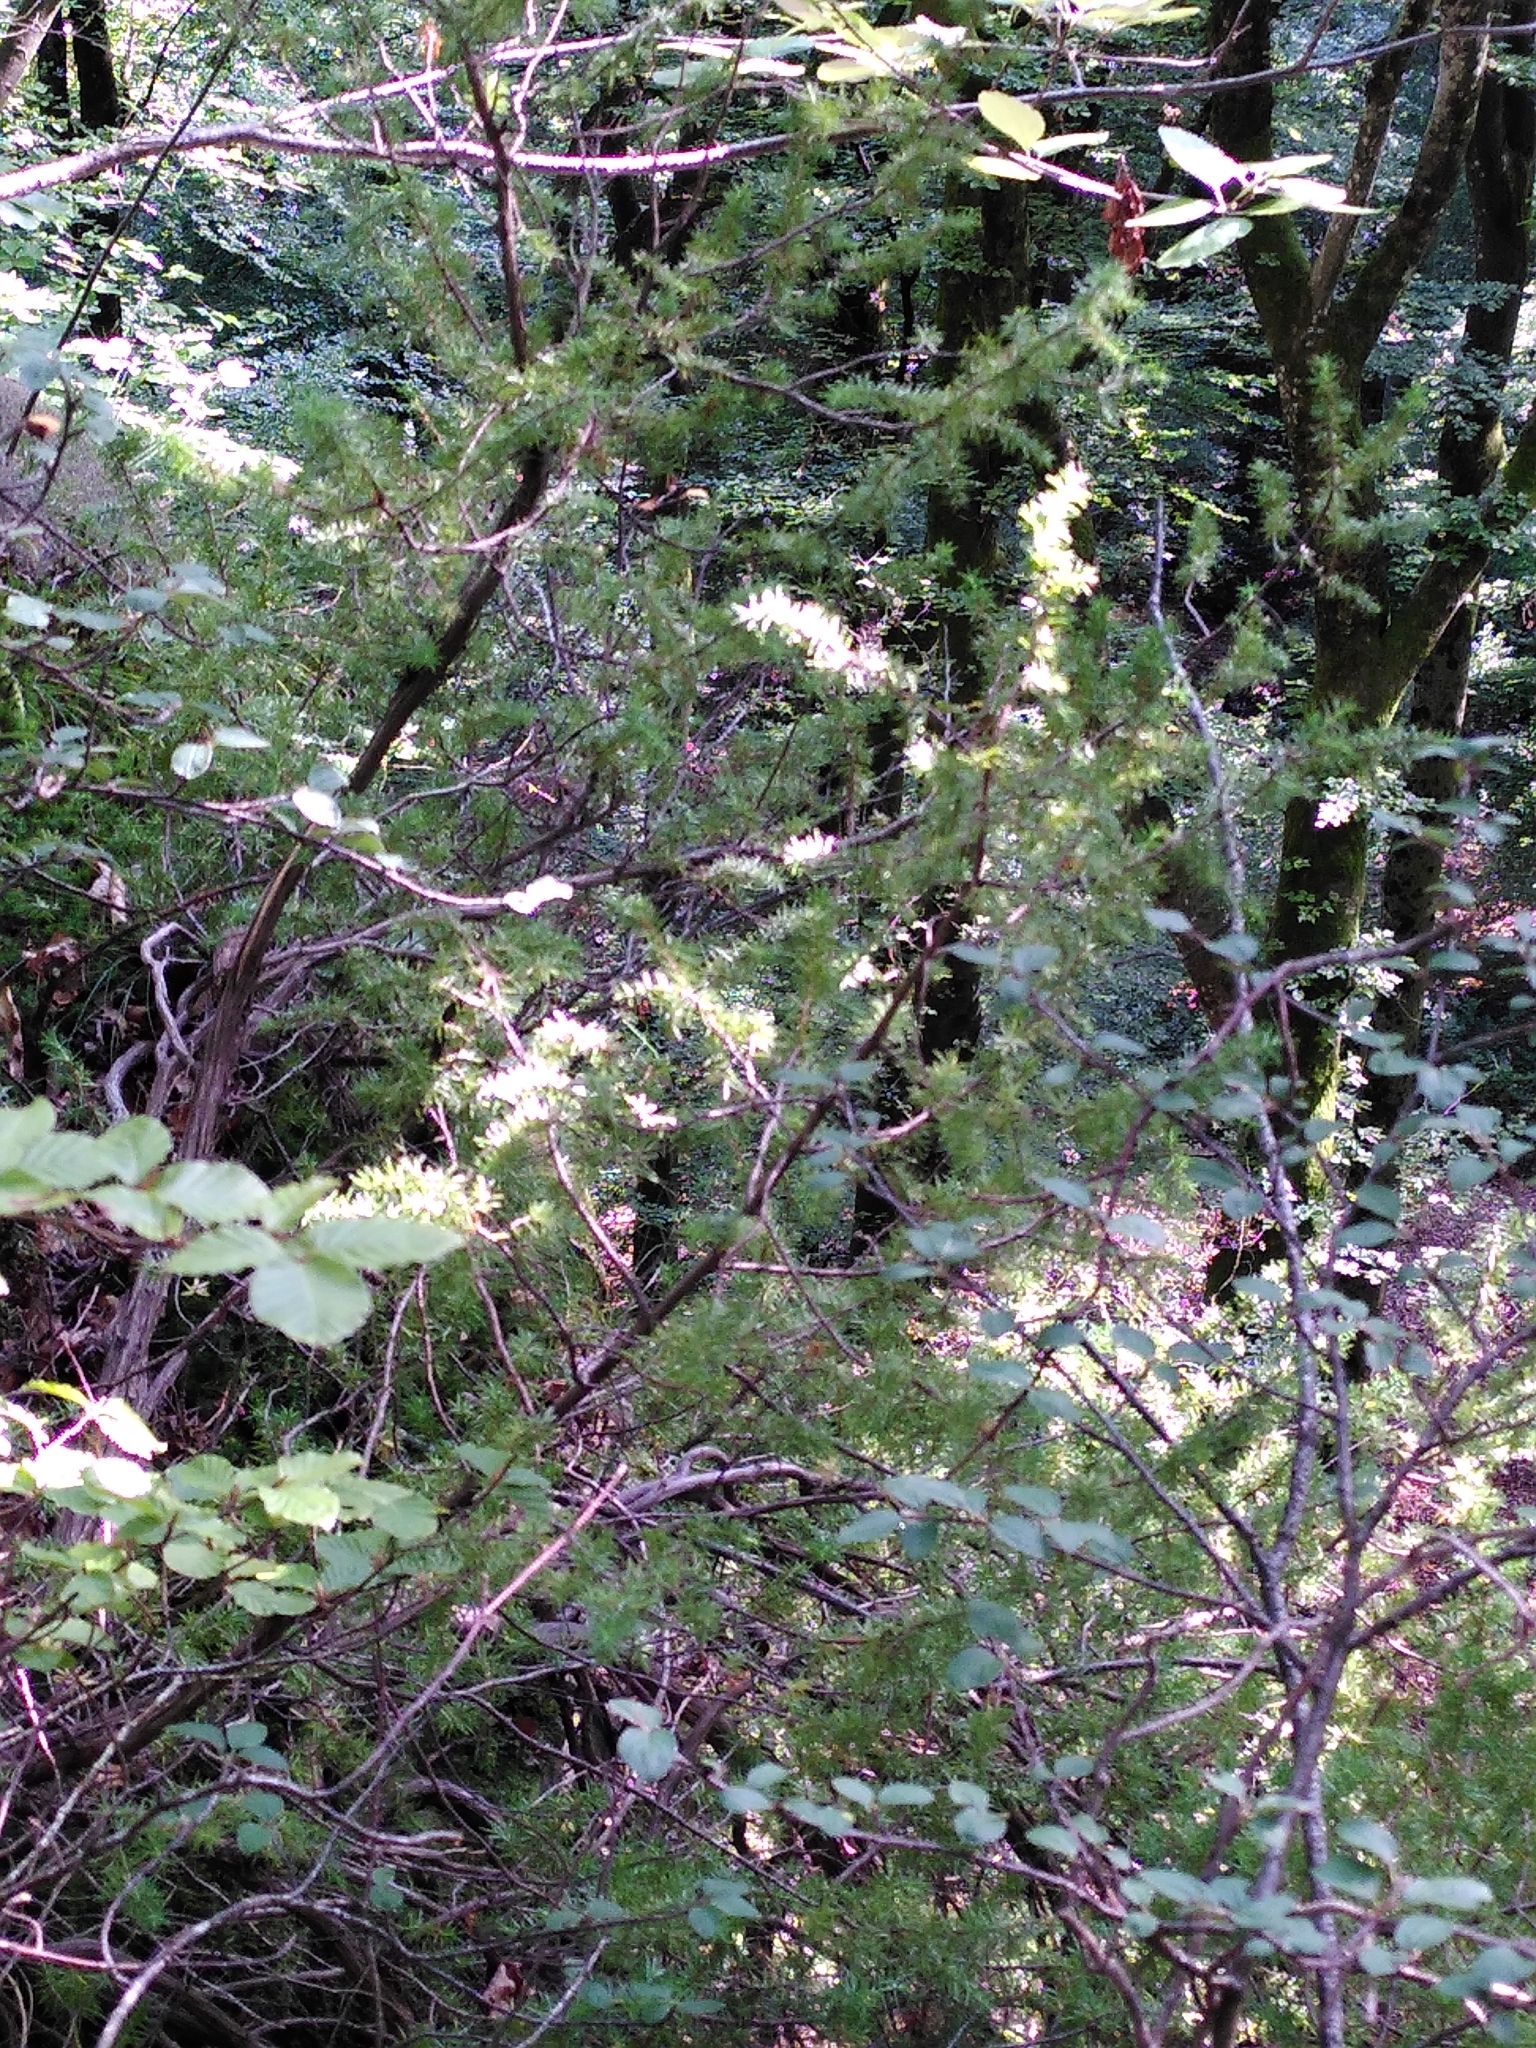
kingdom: Plantae
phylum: Tracheophyta
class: Pinopsida
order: Pinales
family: Cupressaceae
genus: Juniperus
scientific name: Juniperus communis
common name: Common juniper
